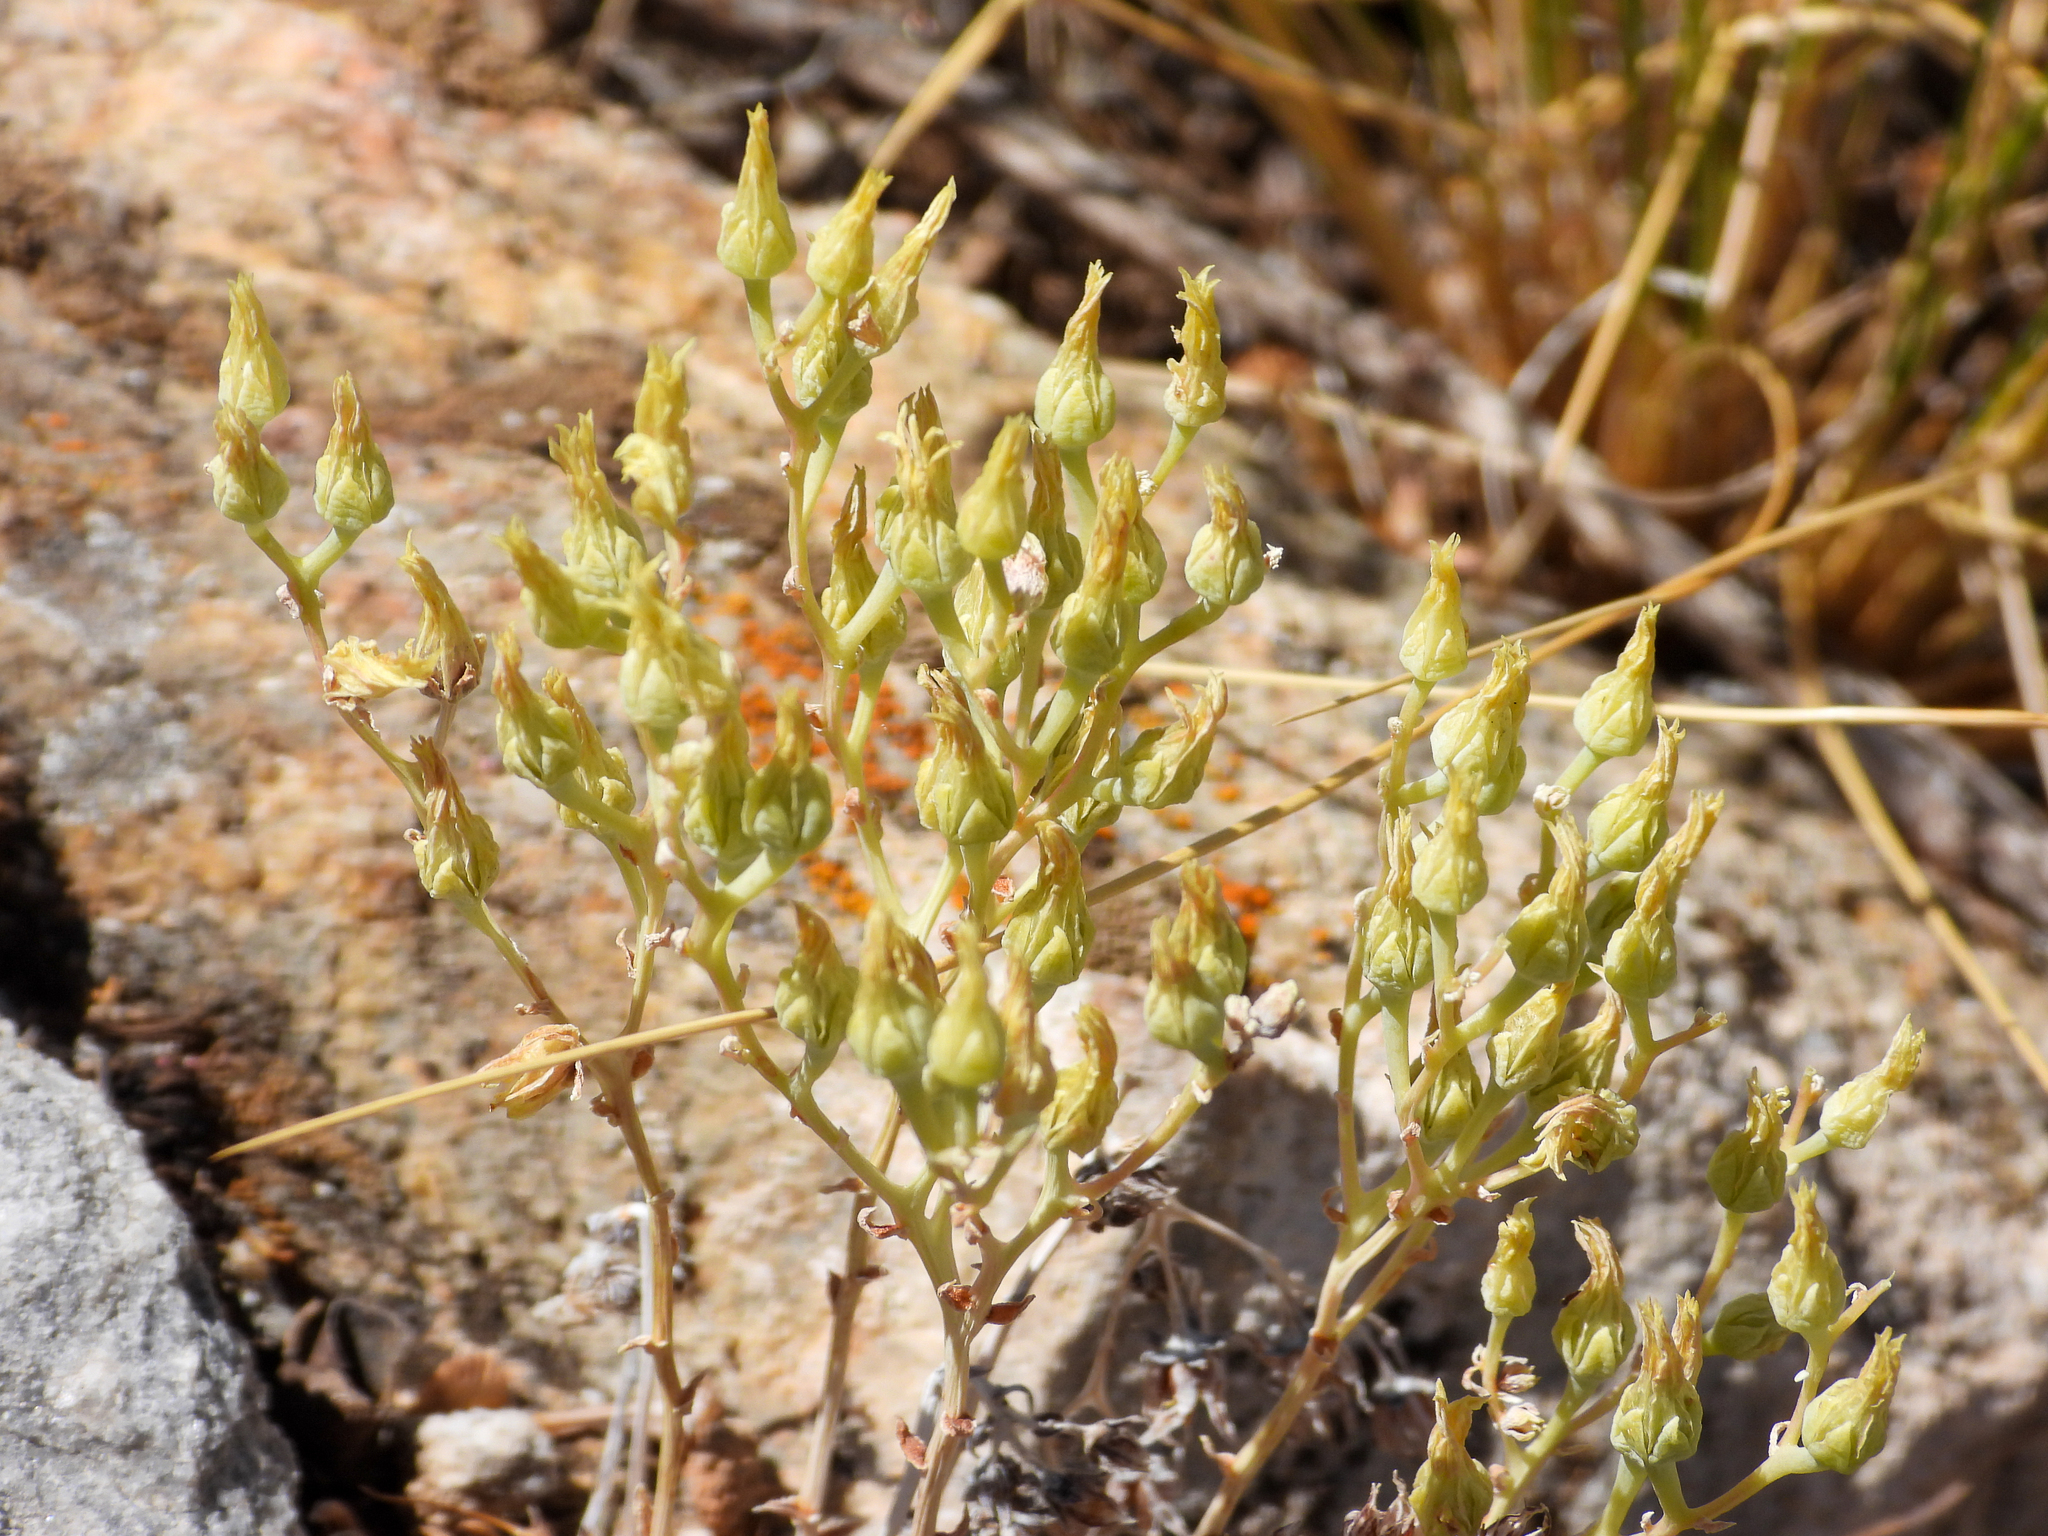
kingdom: Plantae
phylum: Tracheophyta
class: Magnoliopsida
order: Saxifragales
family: Crassulaceae
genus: Dudleya
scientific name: Dudleya calcicola
